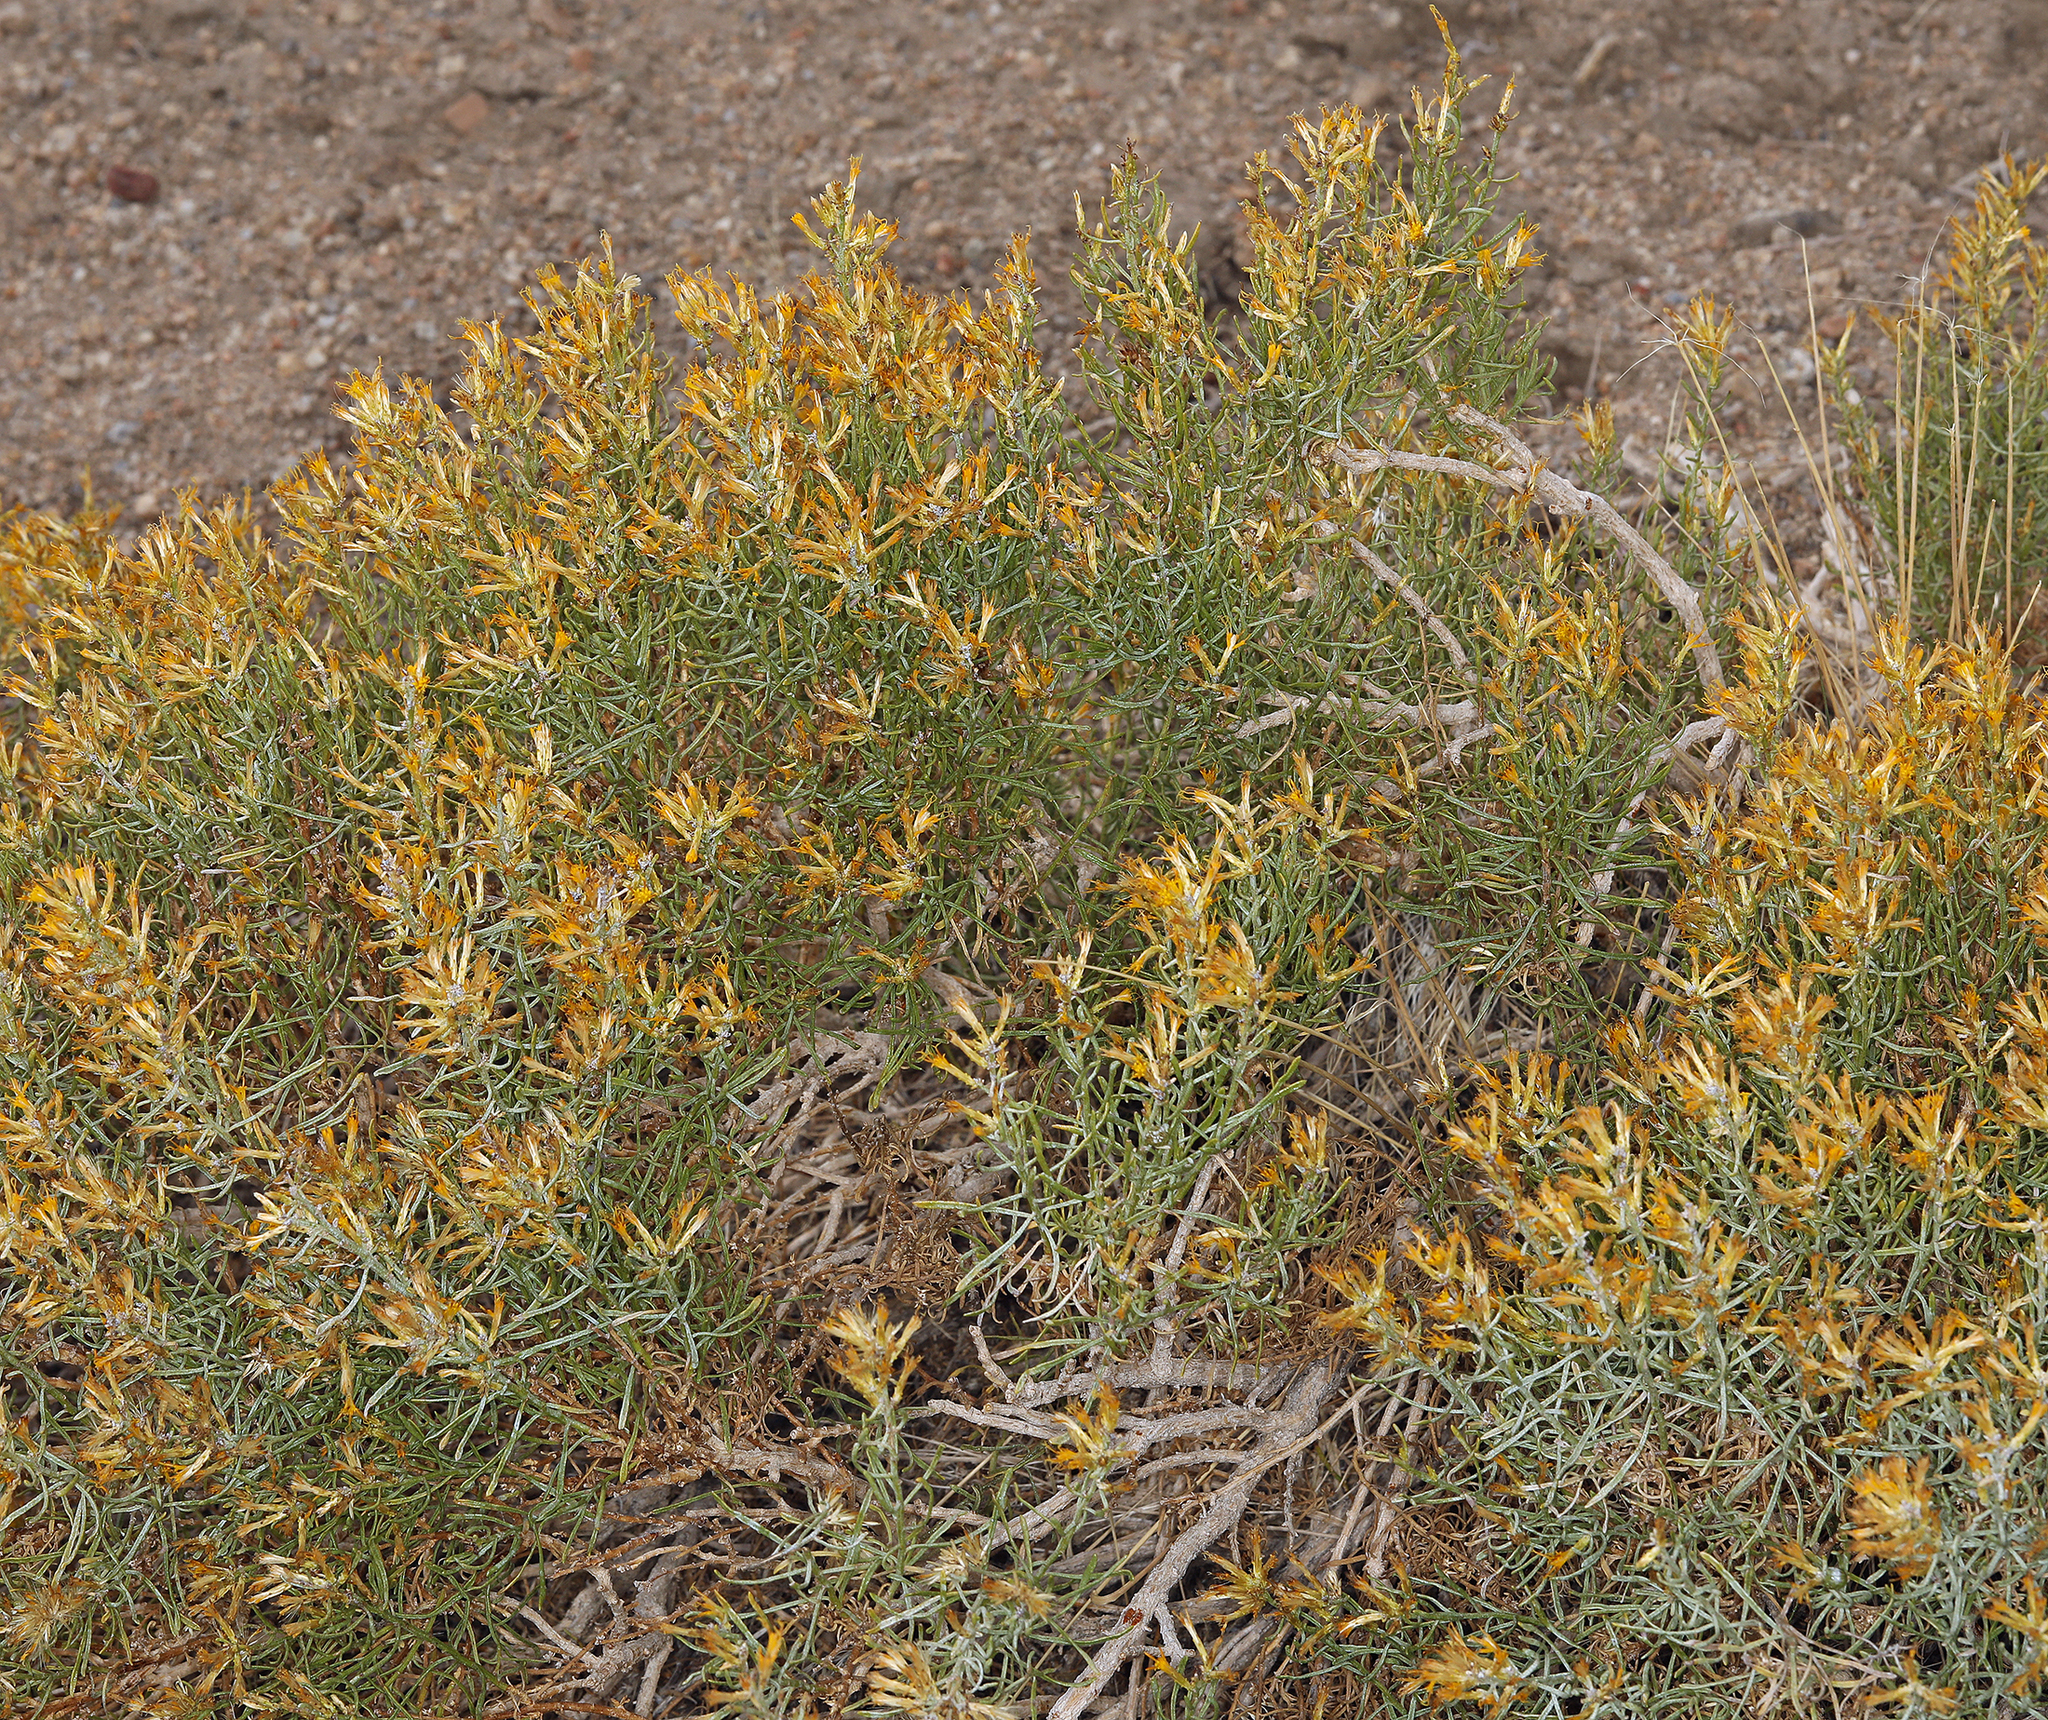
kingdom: Plantae
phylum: Tracheophyta
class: Magnoliopsida
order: Asterales
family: Asteraceae
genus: Ericameria
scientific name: Ericameria teretifolia
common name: Round-leaf rabbitbrush
